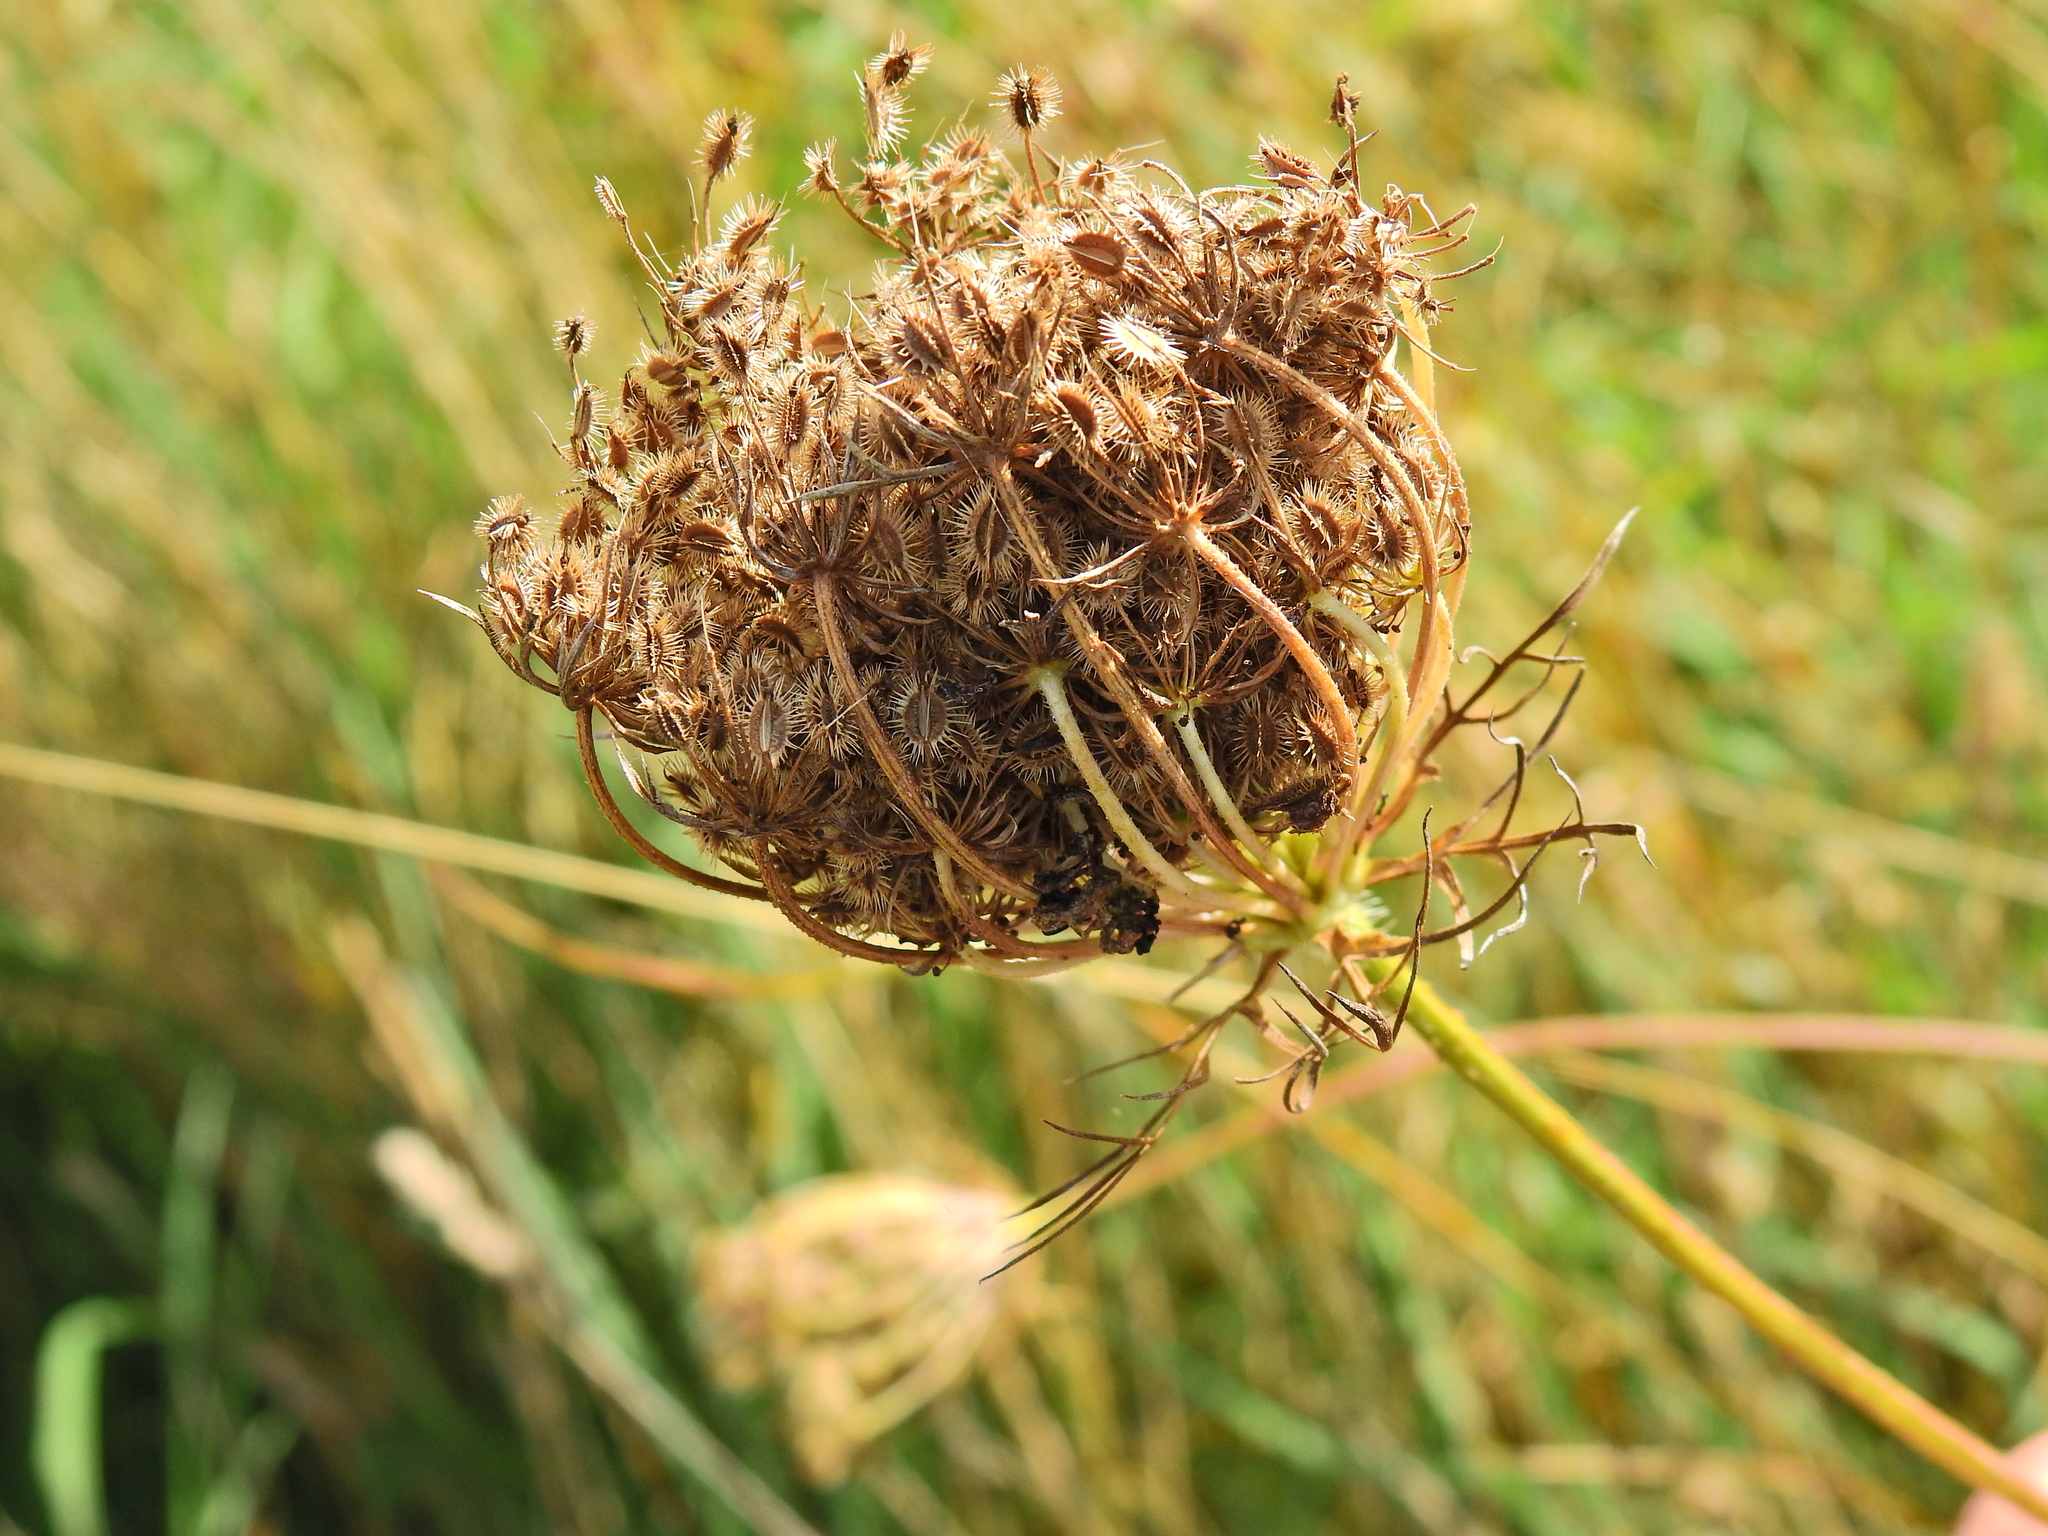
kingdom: Plantae
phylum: Tracheophyta
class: Magnoliopsida
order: Apiales
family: Apiaceae
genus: Daucus
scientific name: Daucus carota
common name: Wild carrot
